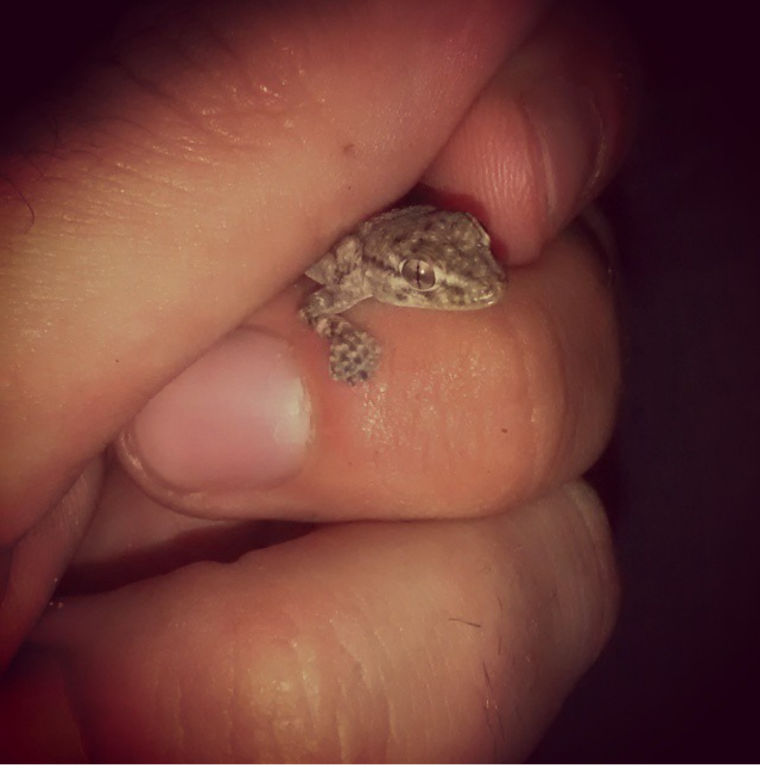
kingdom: Animalia
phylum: Chordata
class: Squamata
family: Phyllodactylidae
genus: Tarentola
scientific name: Tarentola mauritanica
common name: Moorish gecko
